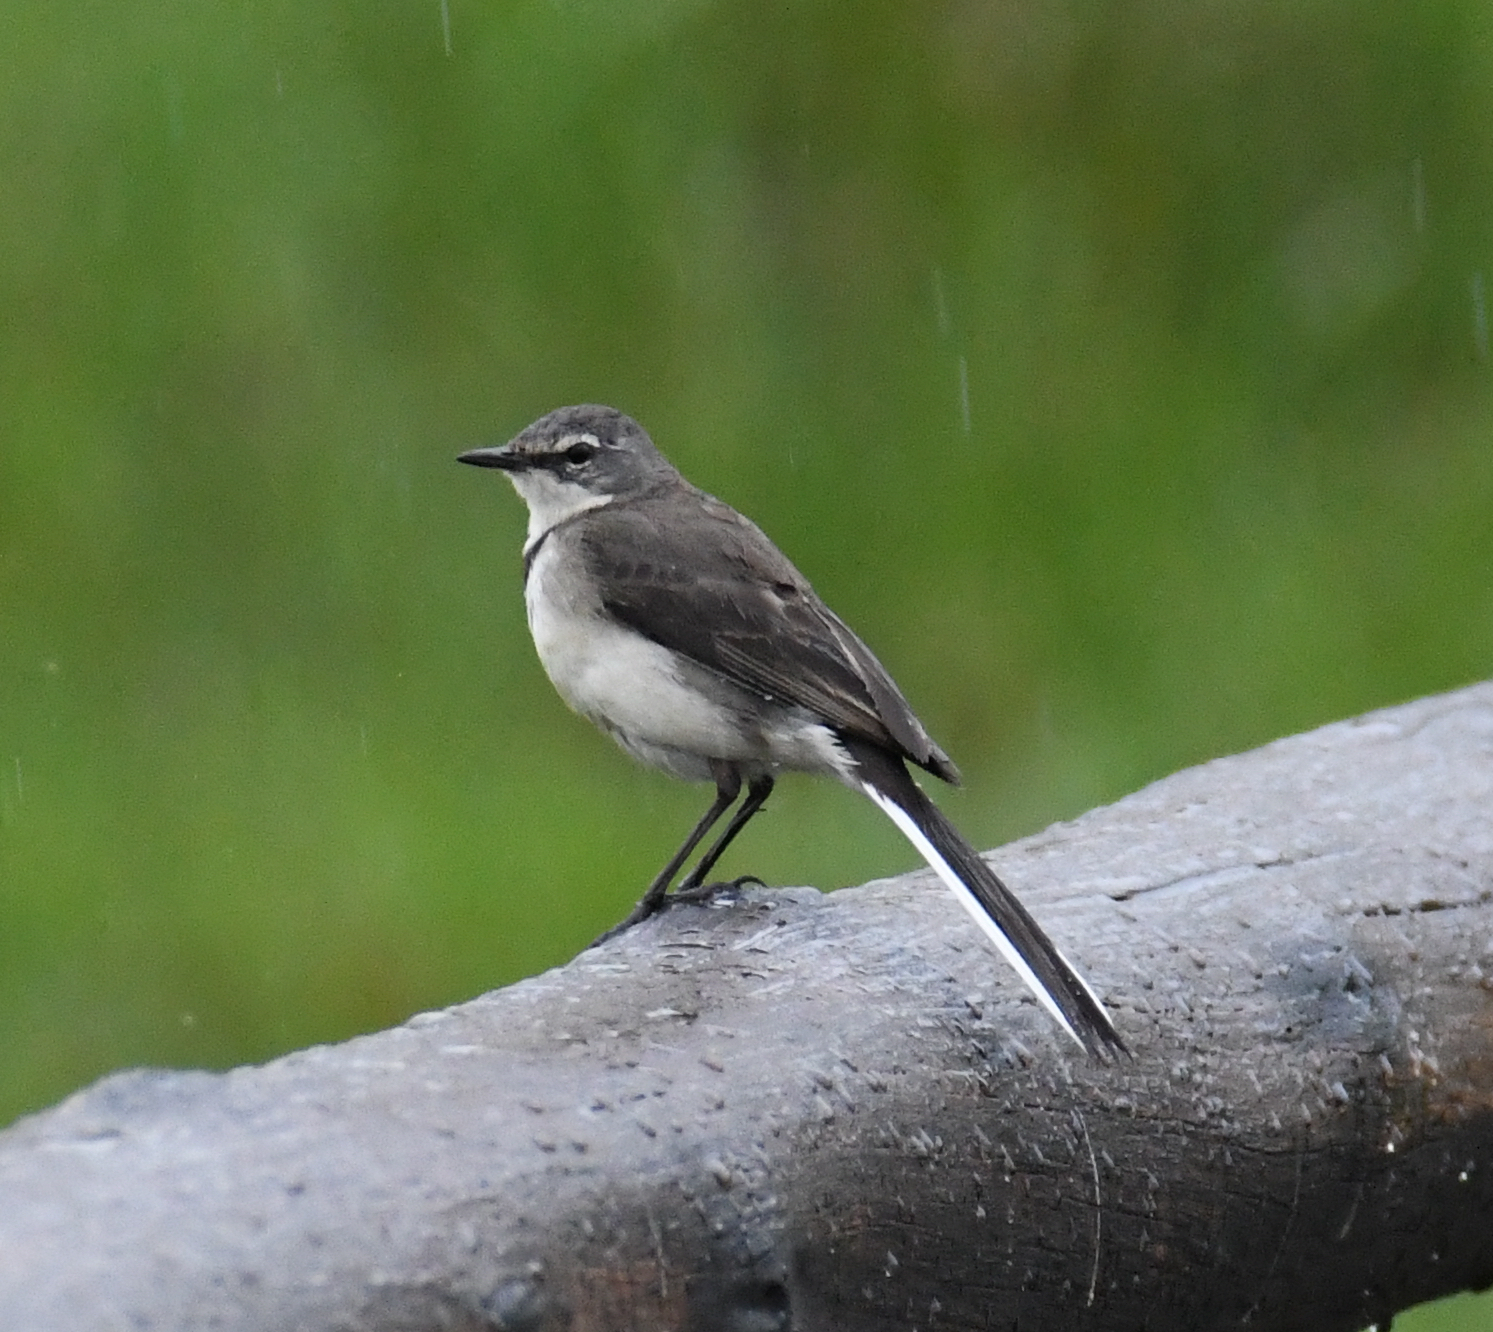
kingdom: Animalia
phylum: Chordata
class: Aves
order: Passeriformes
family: Motacillidae
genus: Motacilla
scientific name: Motacilla capensis
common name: Cape wagtail
